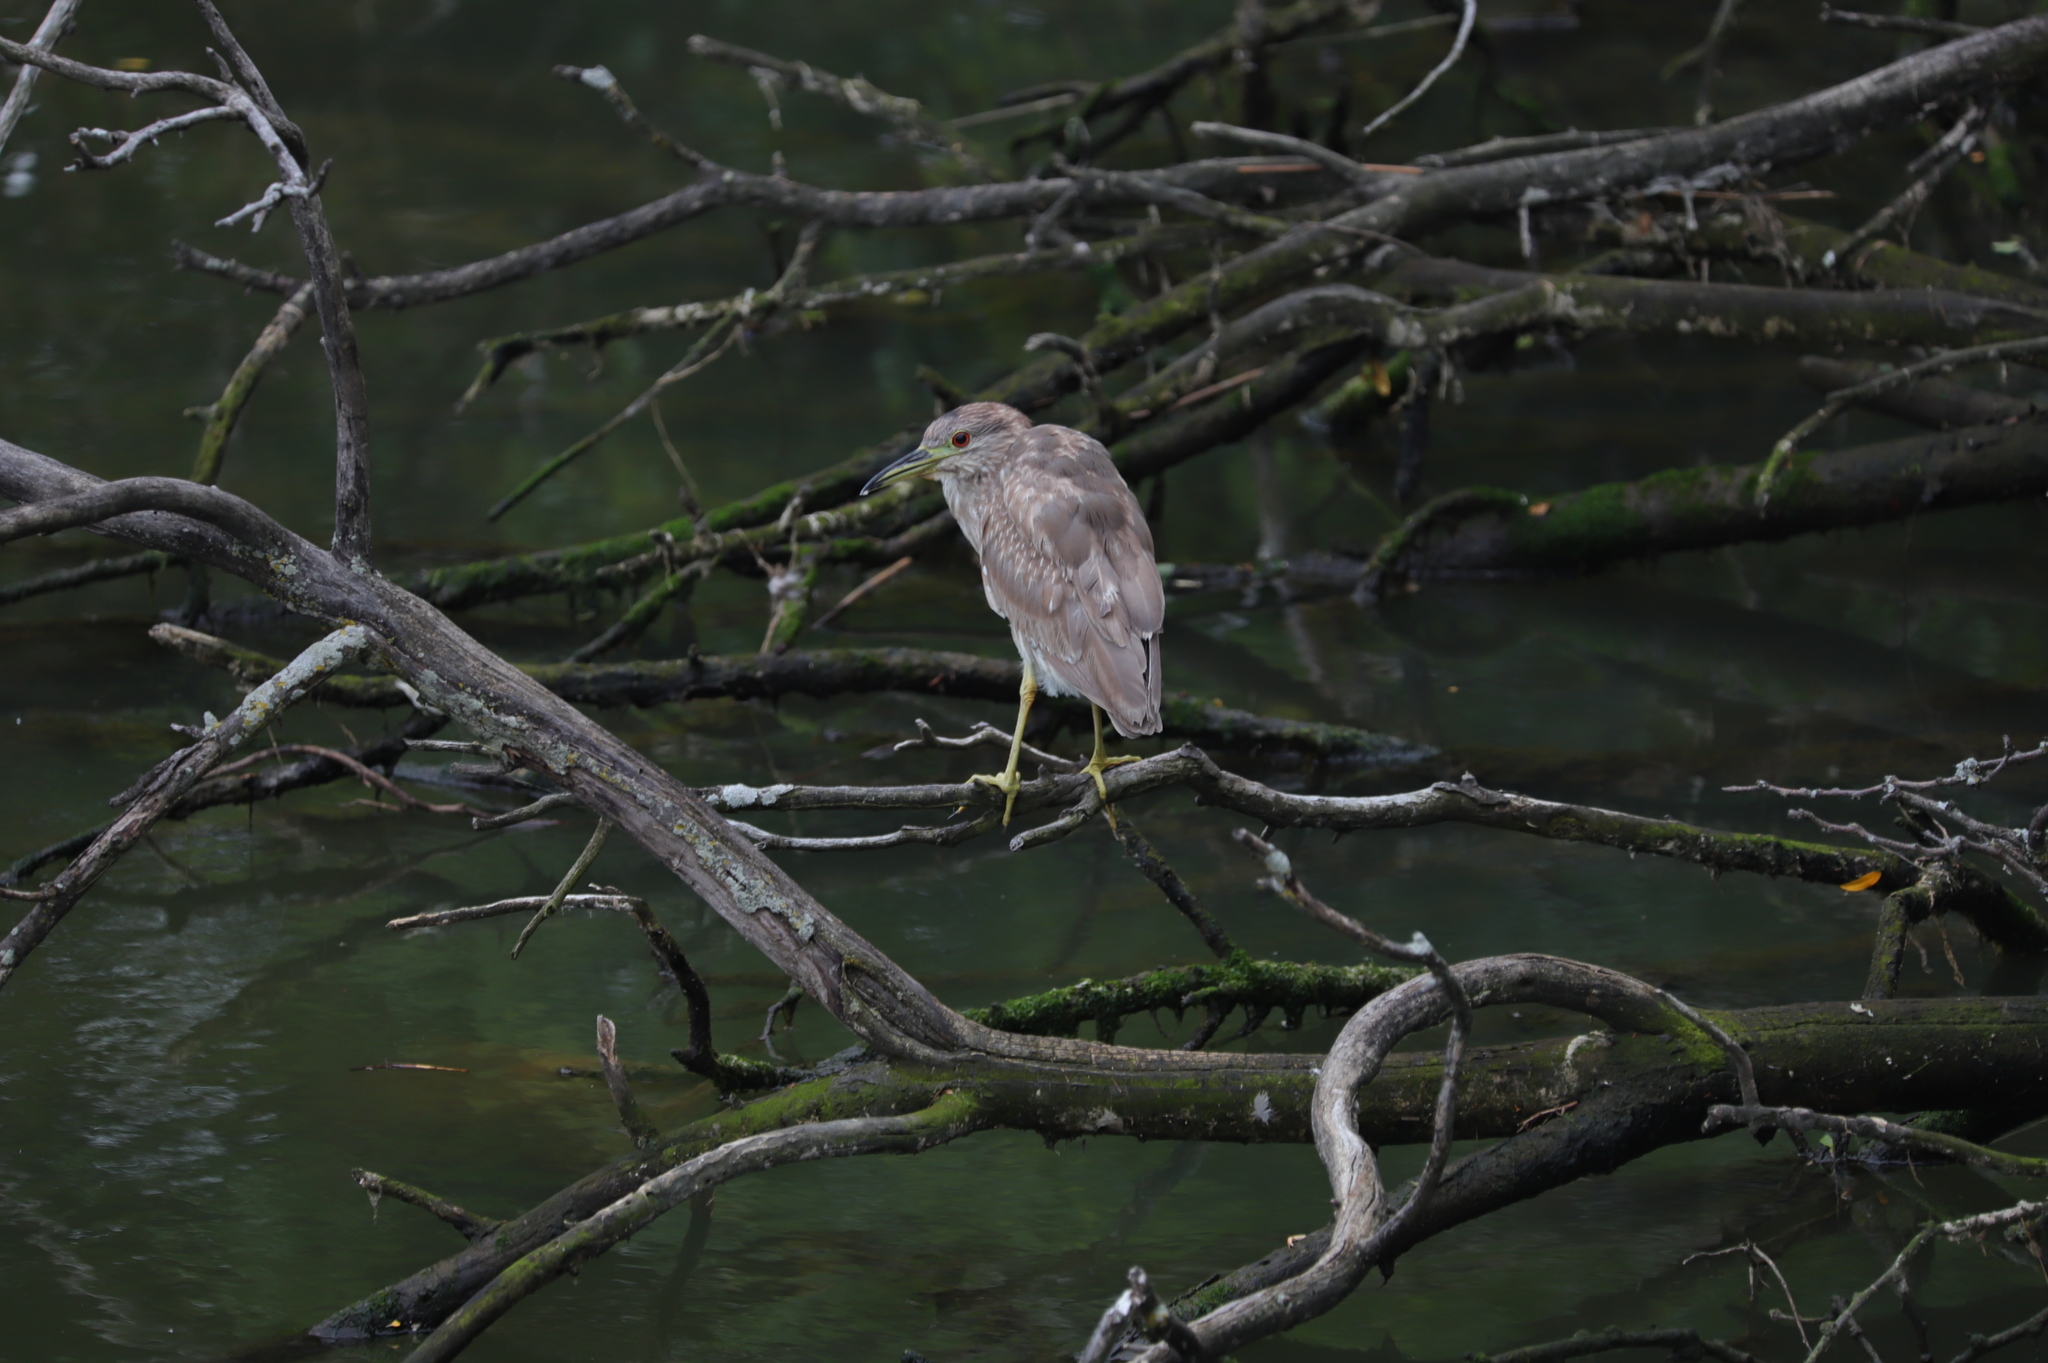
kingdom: Animalia
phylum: Chordata
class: Aves
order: Pelecaniformes
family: Ardeidae
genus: Nycticorax
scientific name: Nycticorax nycticorax
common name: Black-crowned night heron
